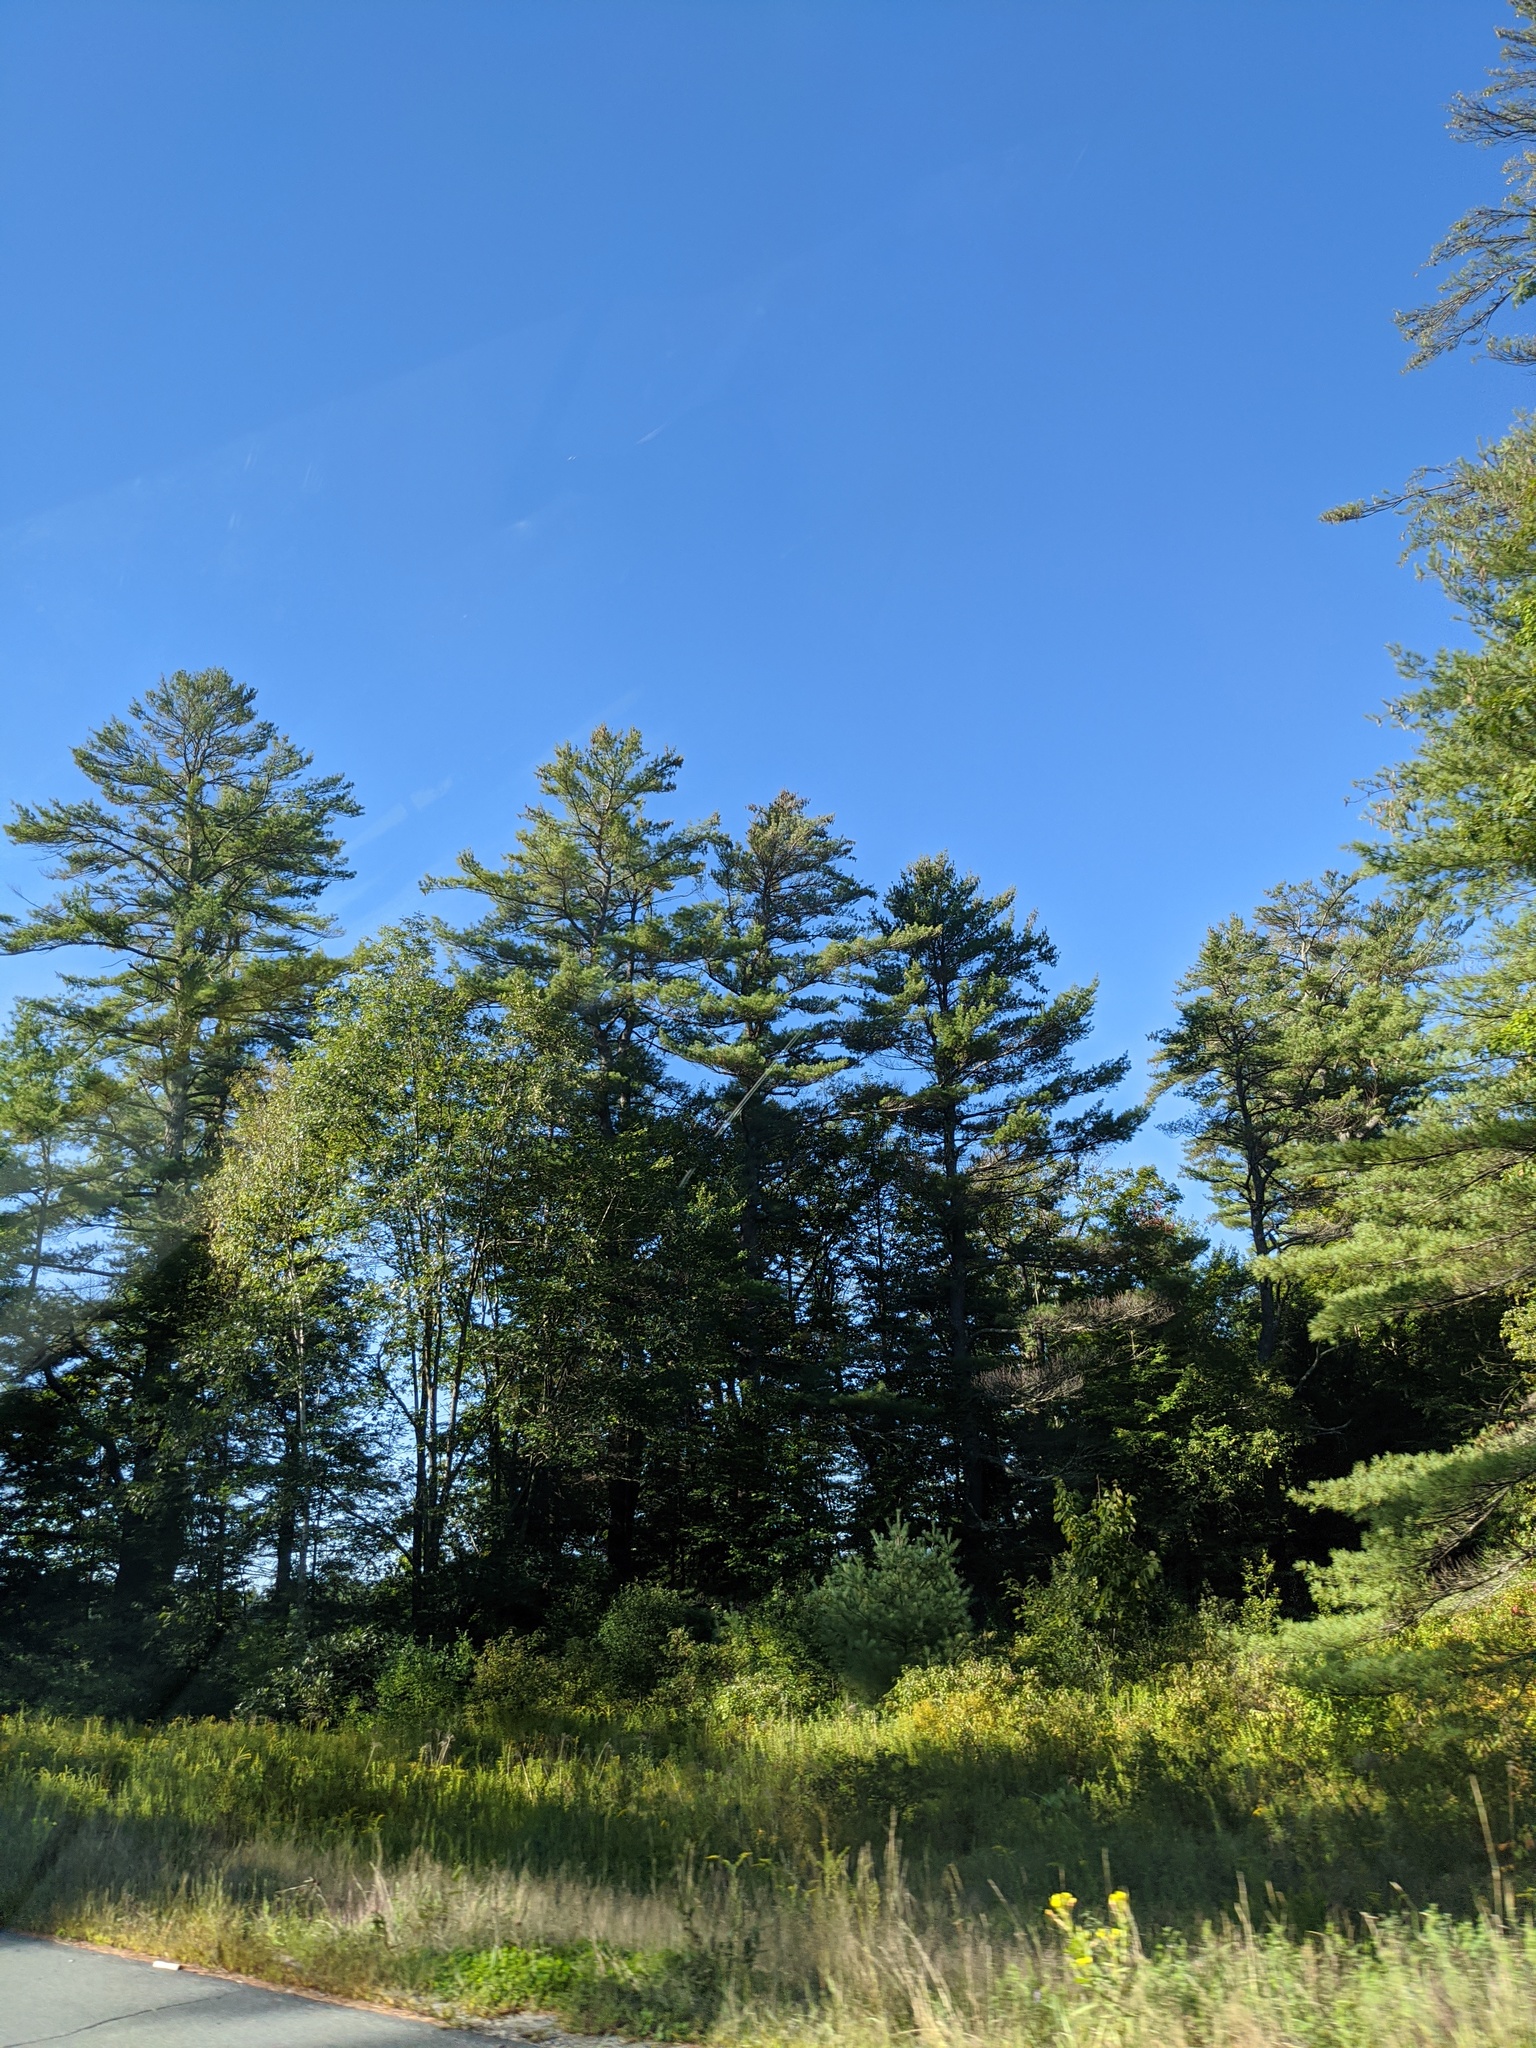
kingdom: Plantae
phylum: Tracheophyta
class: Pinopsida
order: Pinales
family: Pinaceae
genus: Pinus
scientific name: Pinus strobus
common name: Weymouth pine
